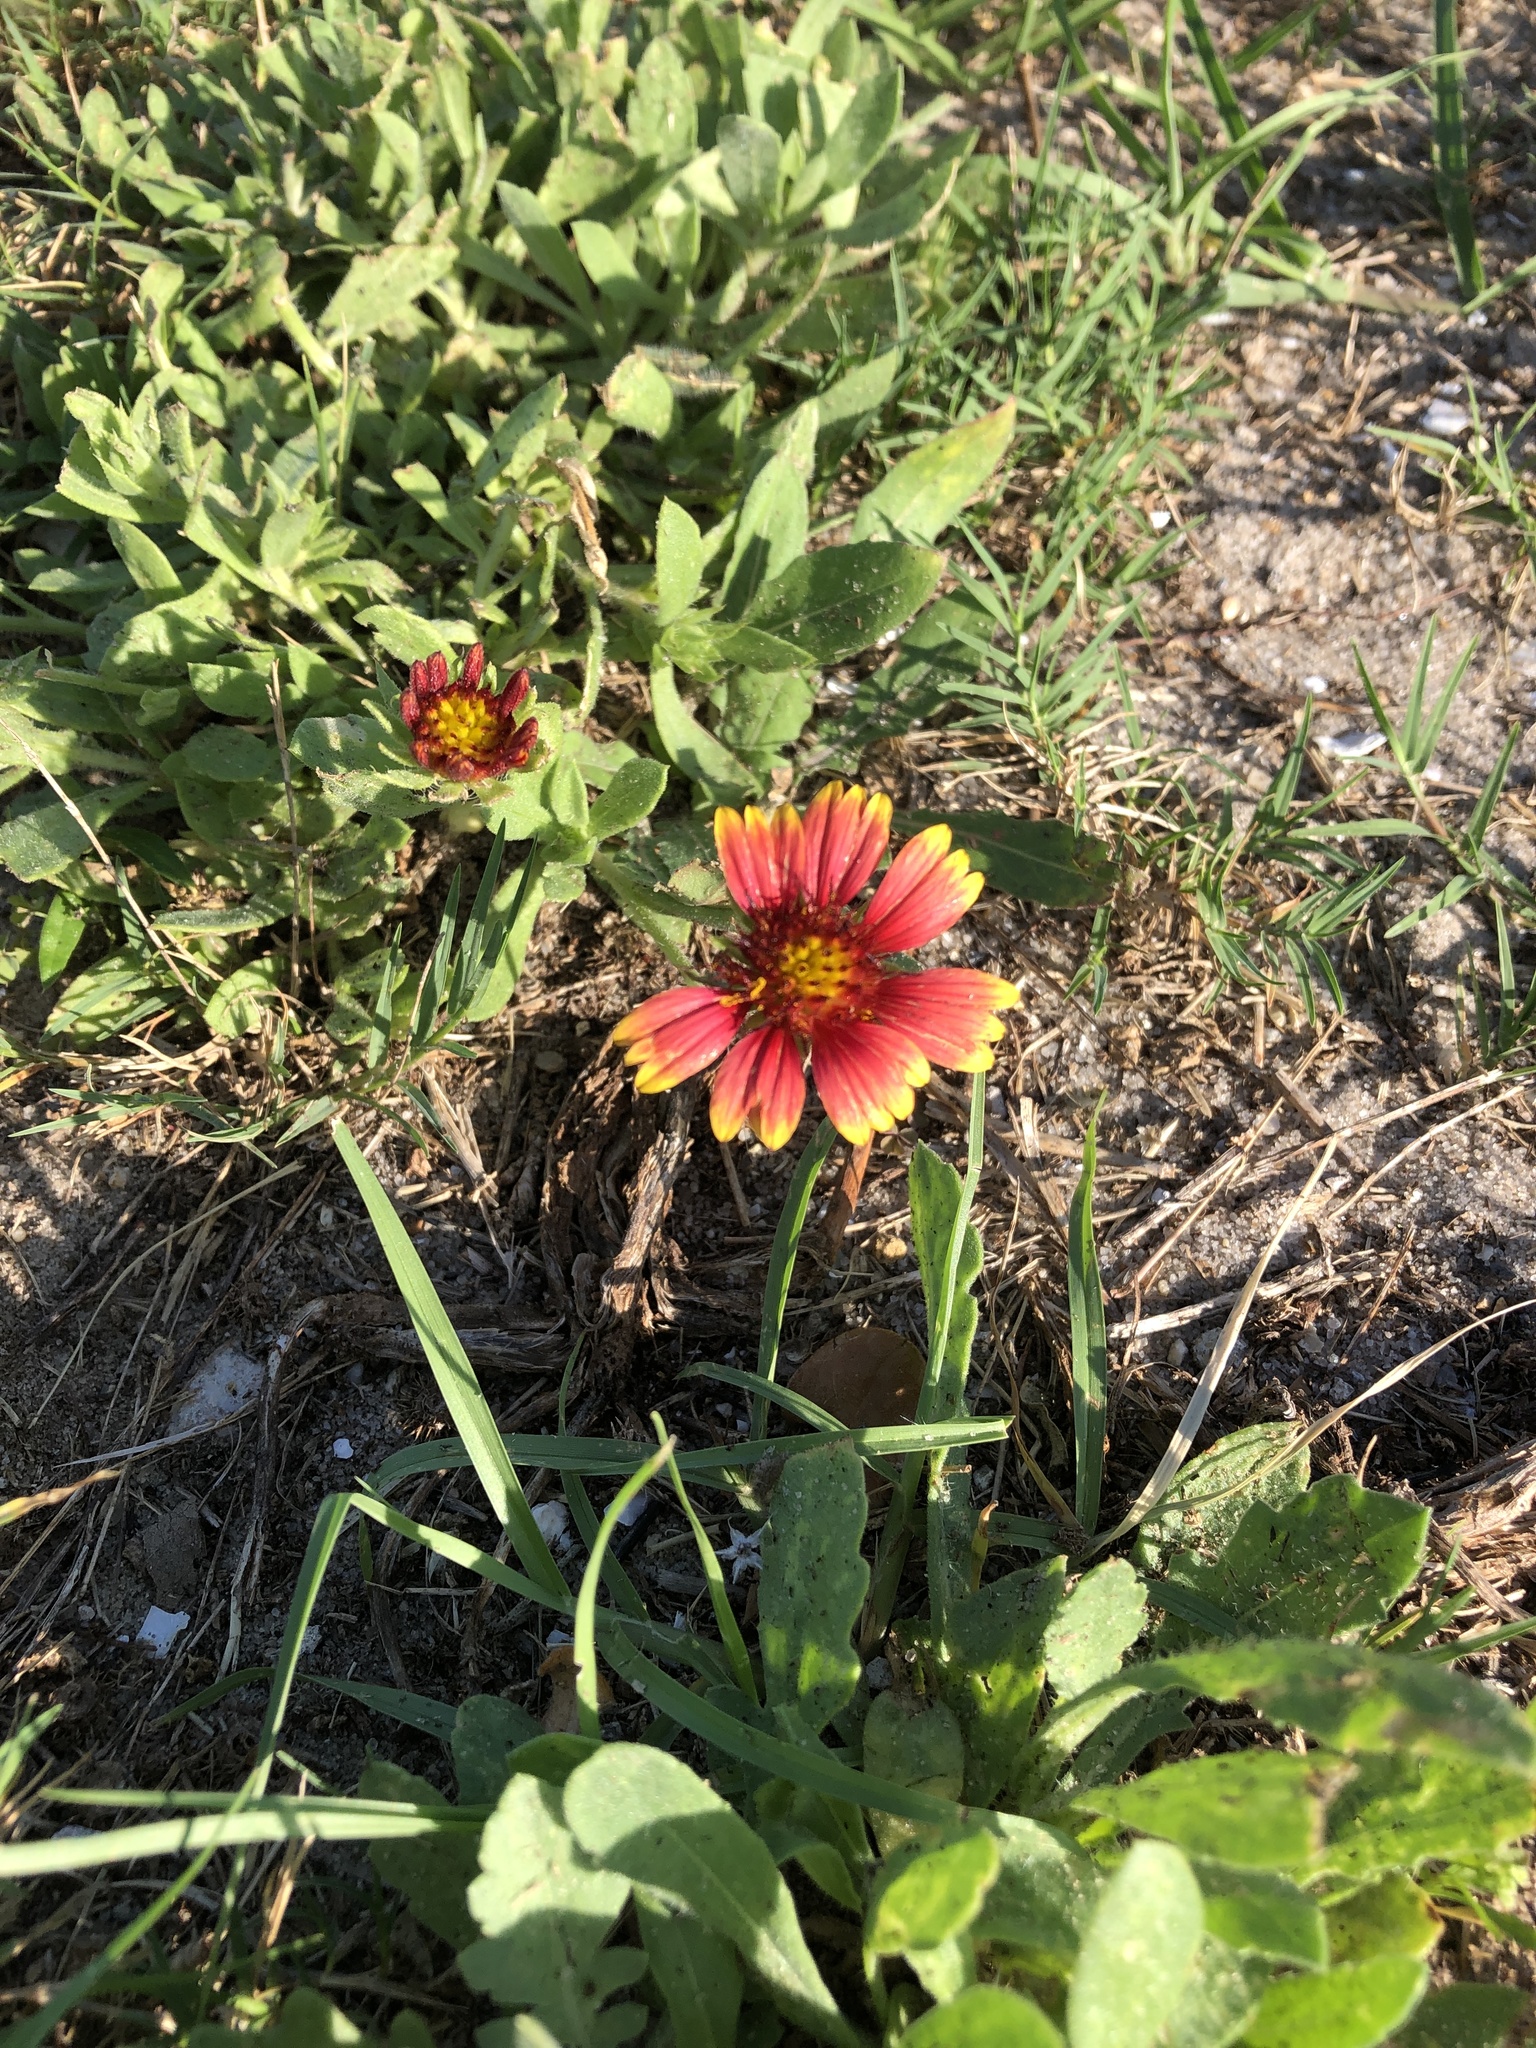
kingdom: Plantae
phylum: Tracheophyta
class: Magnoliopsida
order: Asterales
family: Asteraceae
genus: Gaillardia
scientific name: Gaillardia pulchella
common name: Firewheel
